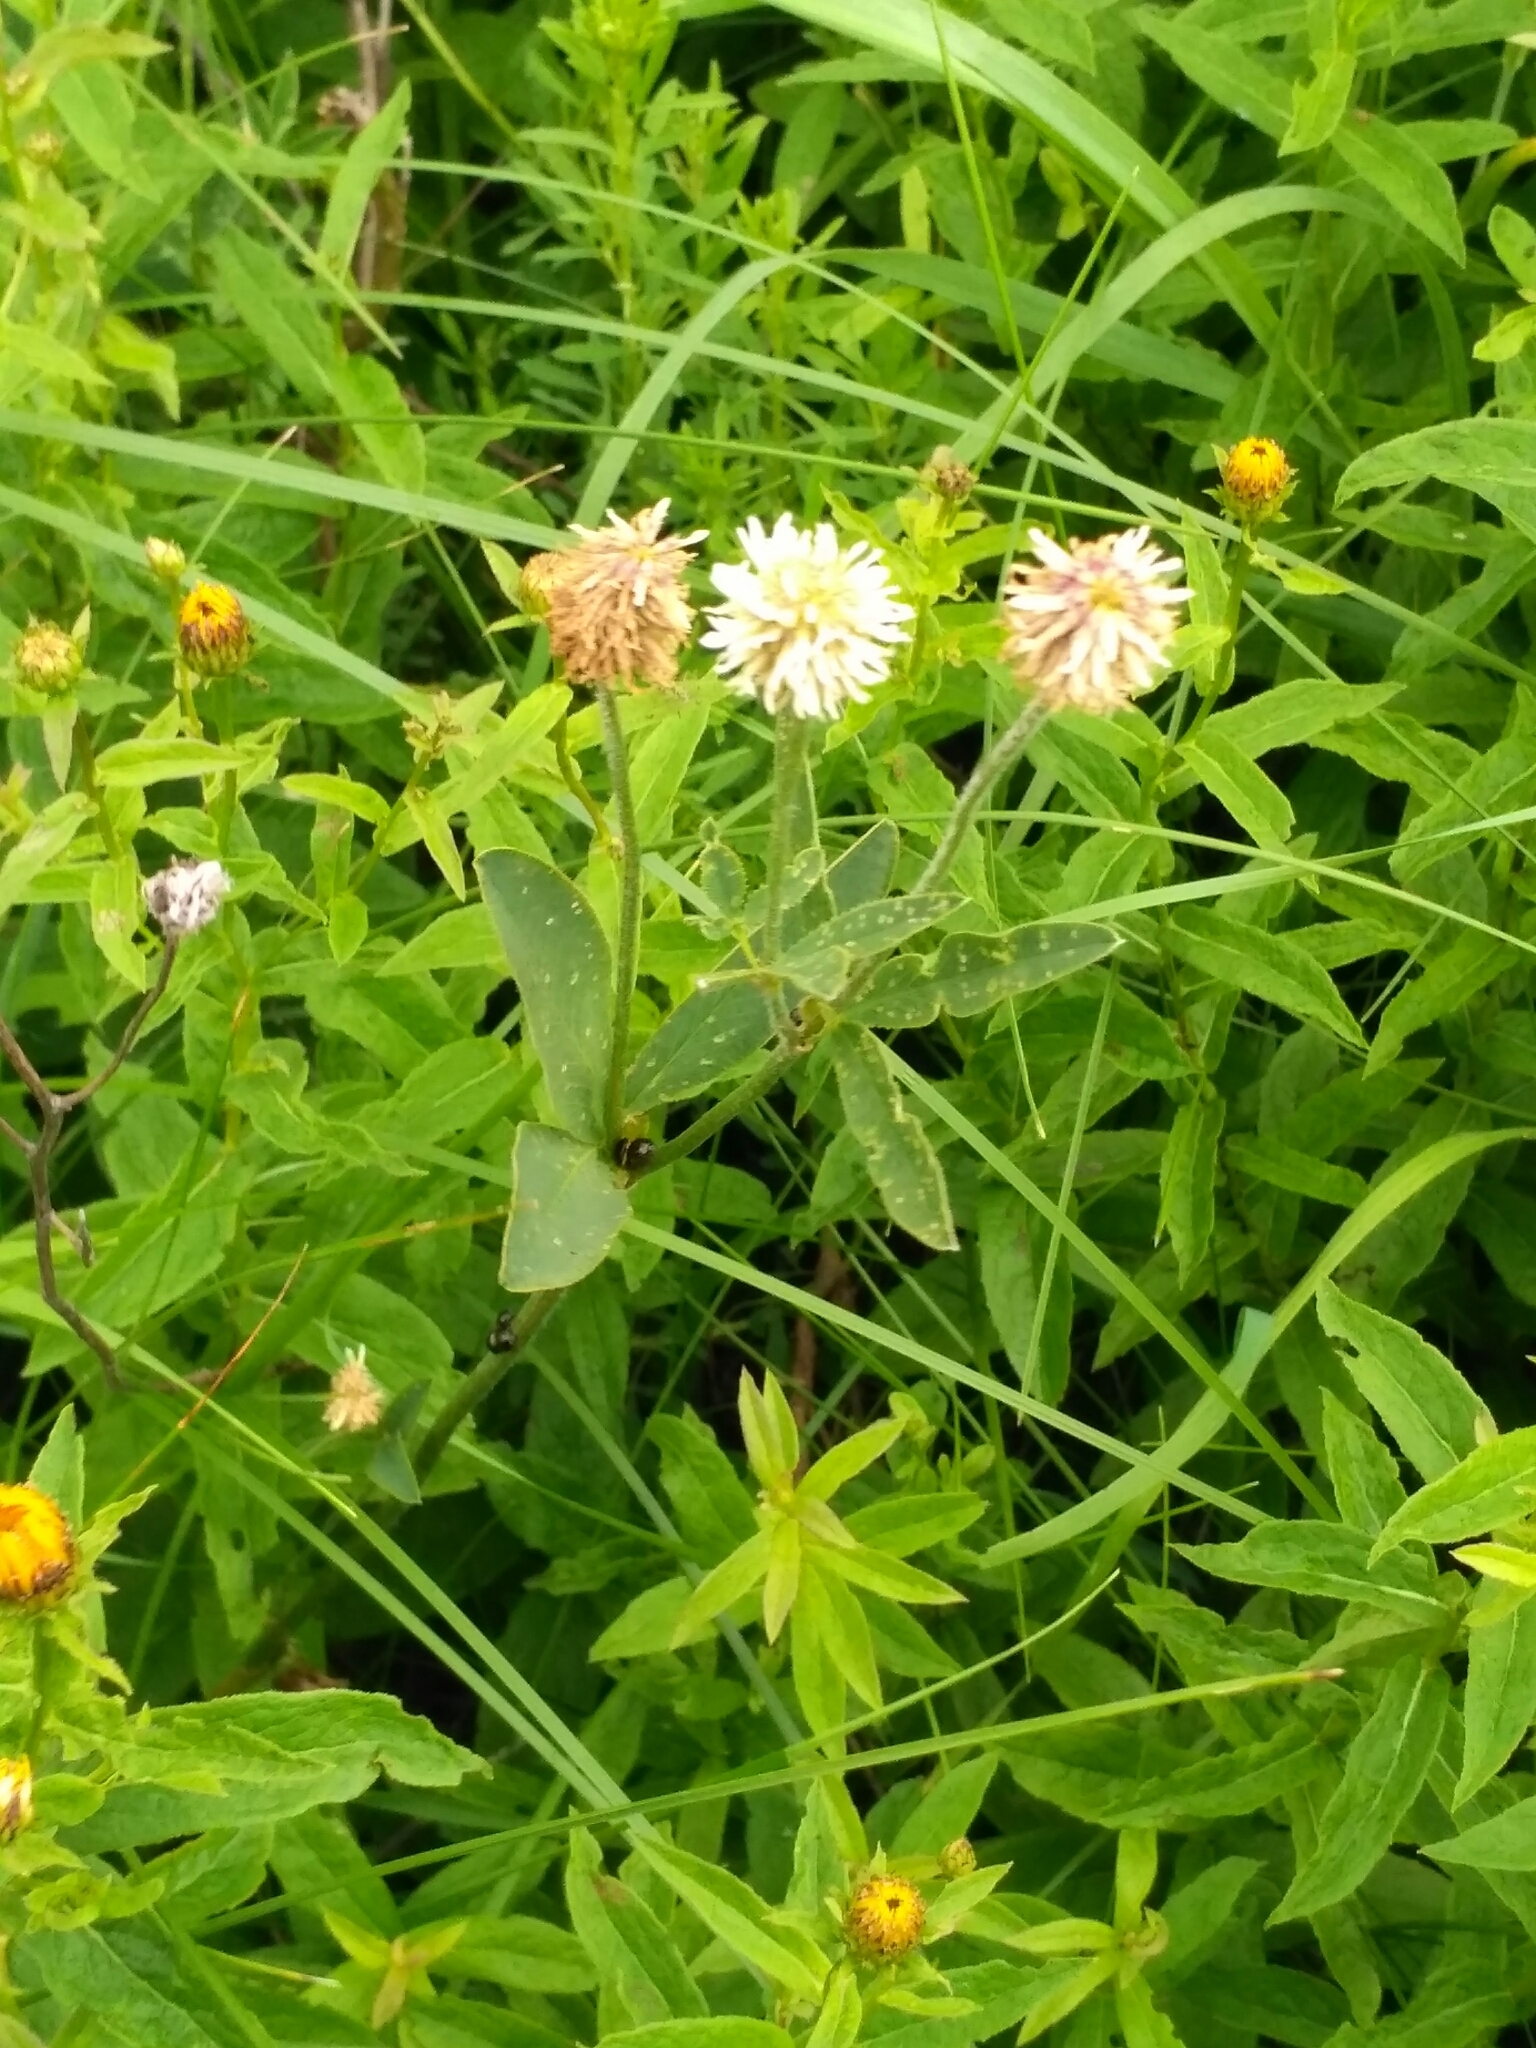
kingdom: Plantae
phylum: Tracheophyta
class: Magnoliopsida
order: Fabales
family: Fabaceae
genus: Trifolium
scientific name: Trifolium montanum
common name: Mountain clover
